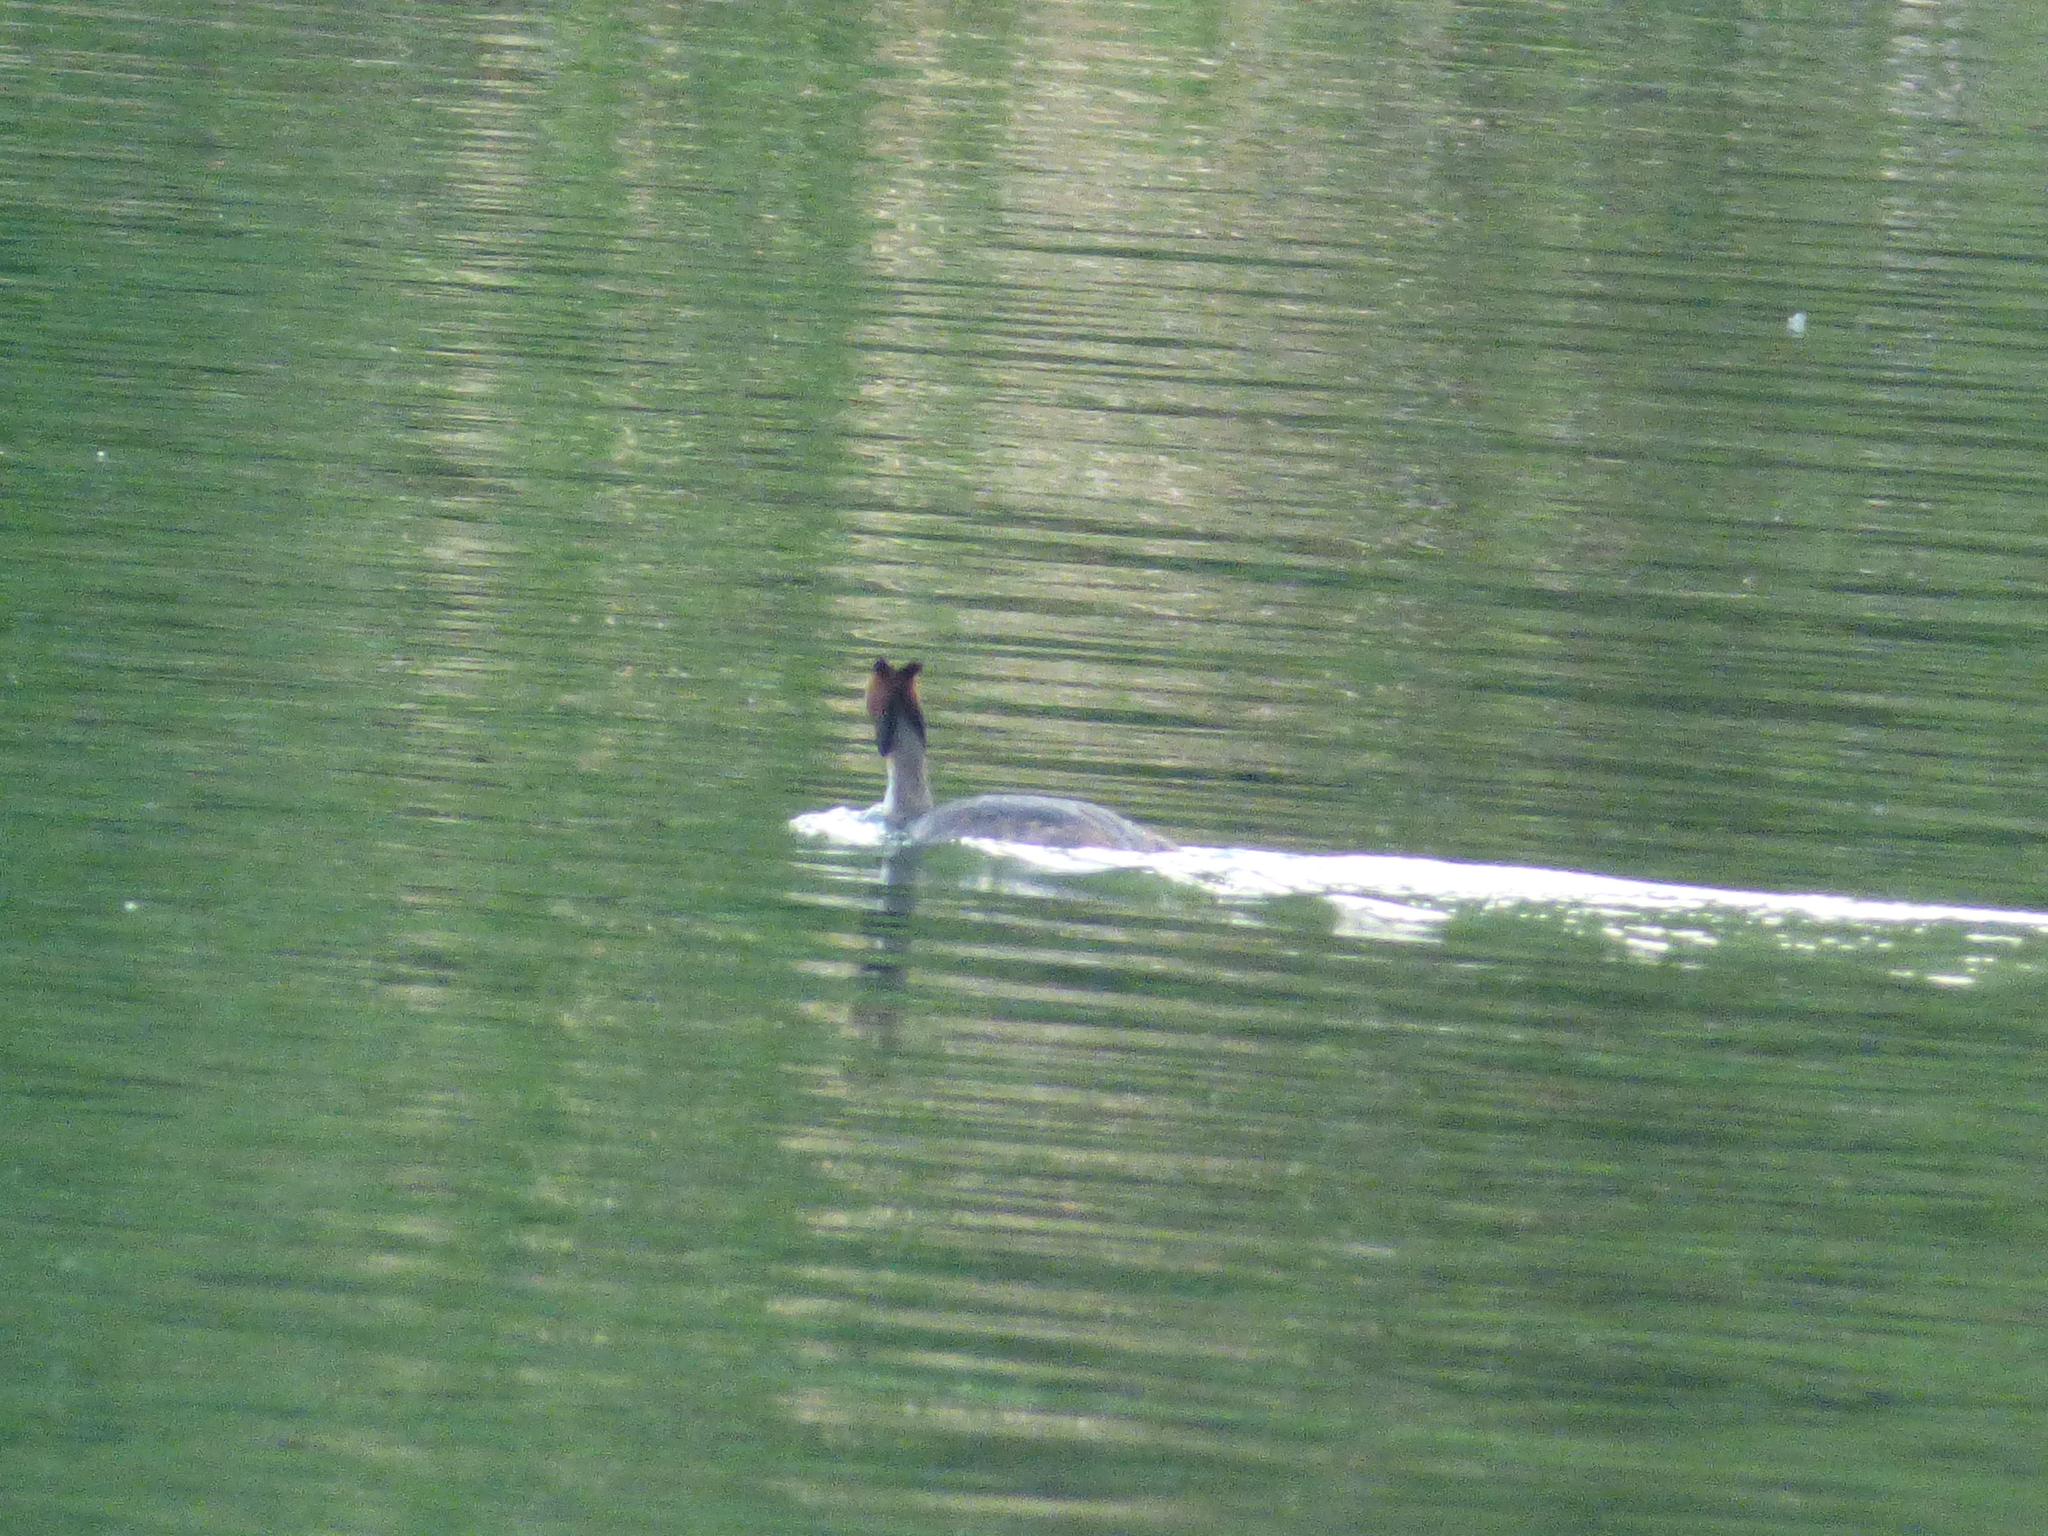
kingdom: Animalia
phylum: Chordata
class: Aves
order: Podicipediformes
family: Podicipedidae
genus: Podiceps
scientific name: Podiceps cristatus
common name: Great crested grebe
